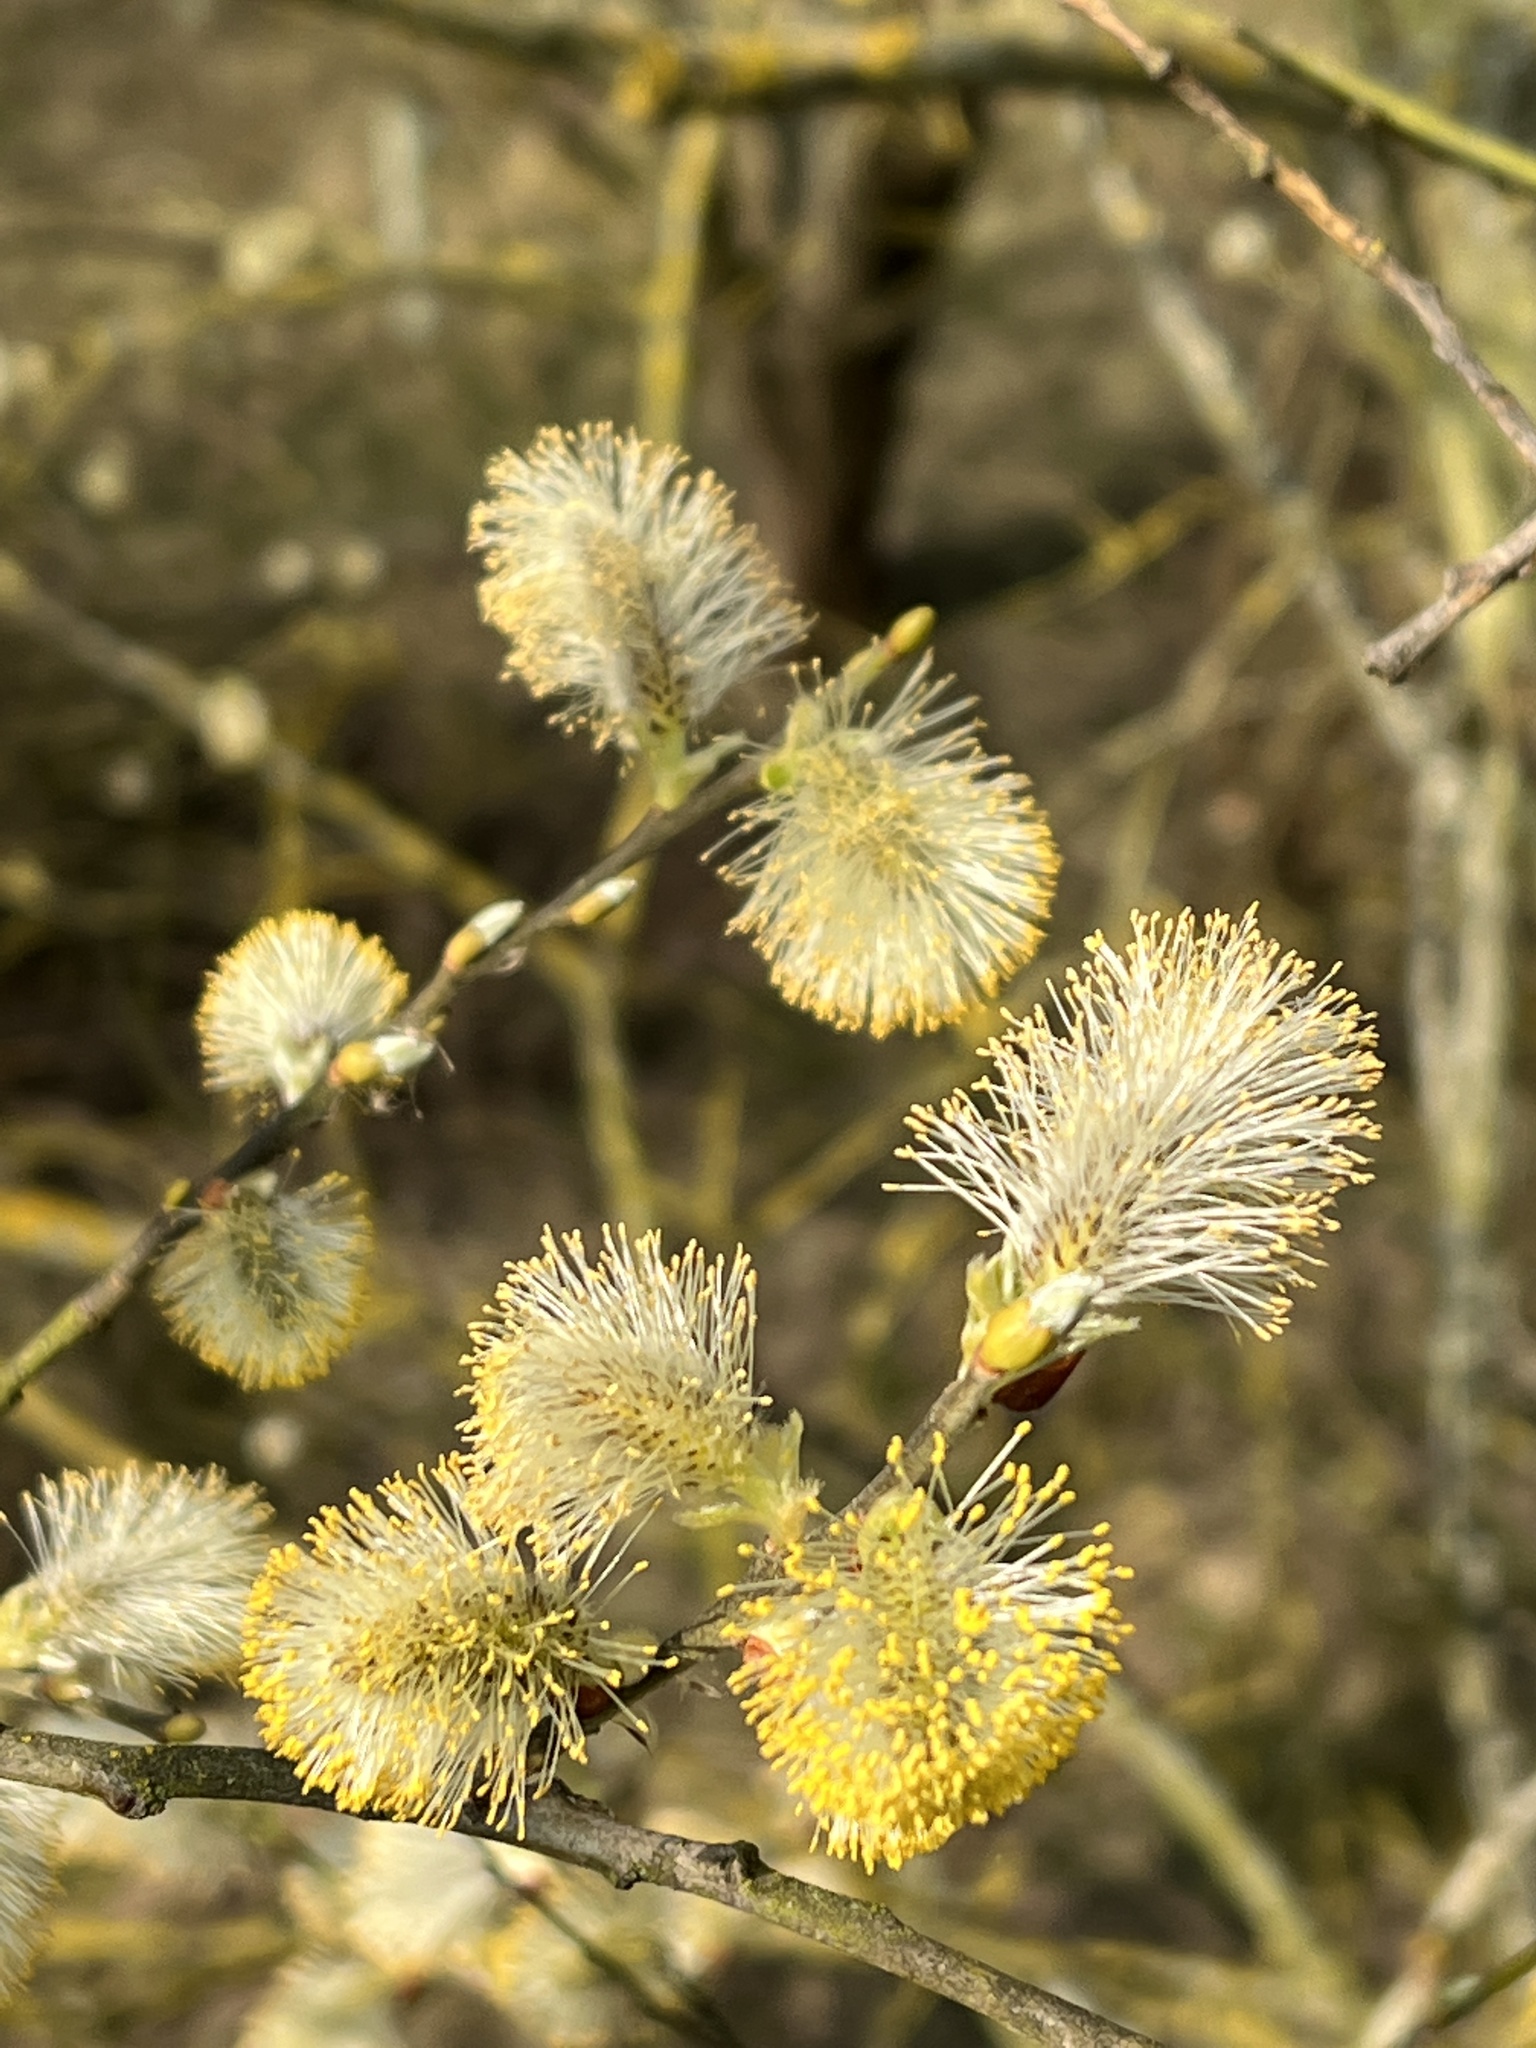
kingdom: Plantae
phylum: Tracheophyta
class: Magnoliopsida
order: Malpighiales
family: Salicaceae
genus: Salix
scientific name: Salix caprea
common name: Goat willow
